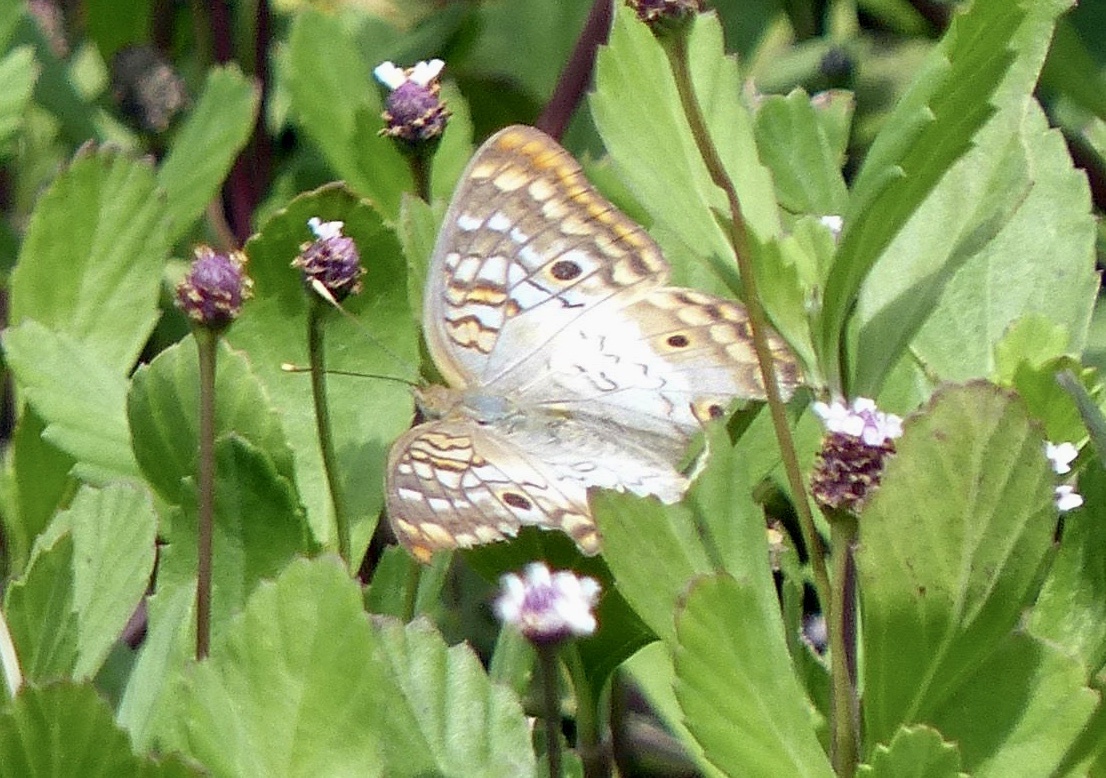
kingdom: Animalia
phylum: Arthropoda
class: Insecta
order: Lepidoptera
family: Nymphalidae
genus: Anartia
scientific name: Anartia jatrophae
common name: White peacock
